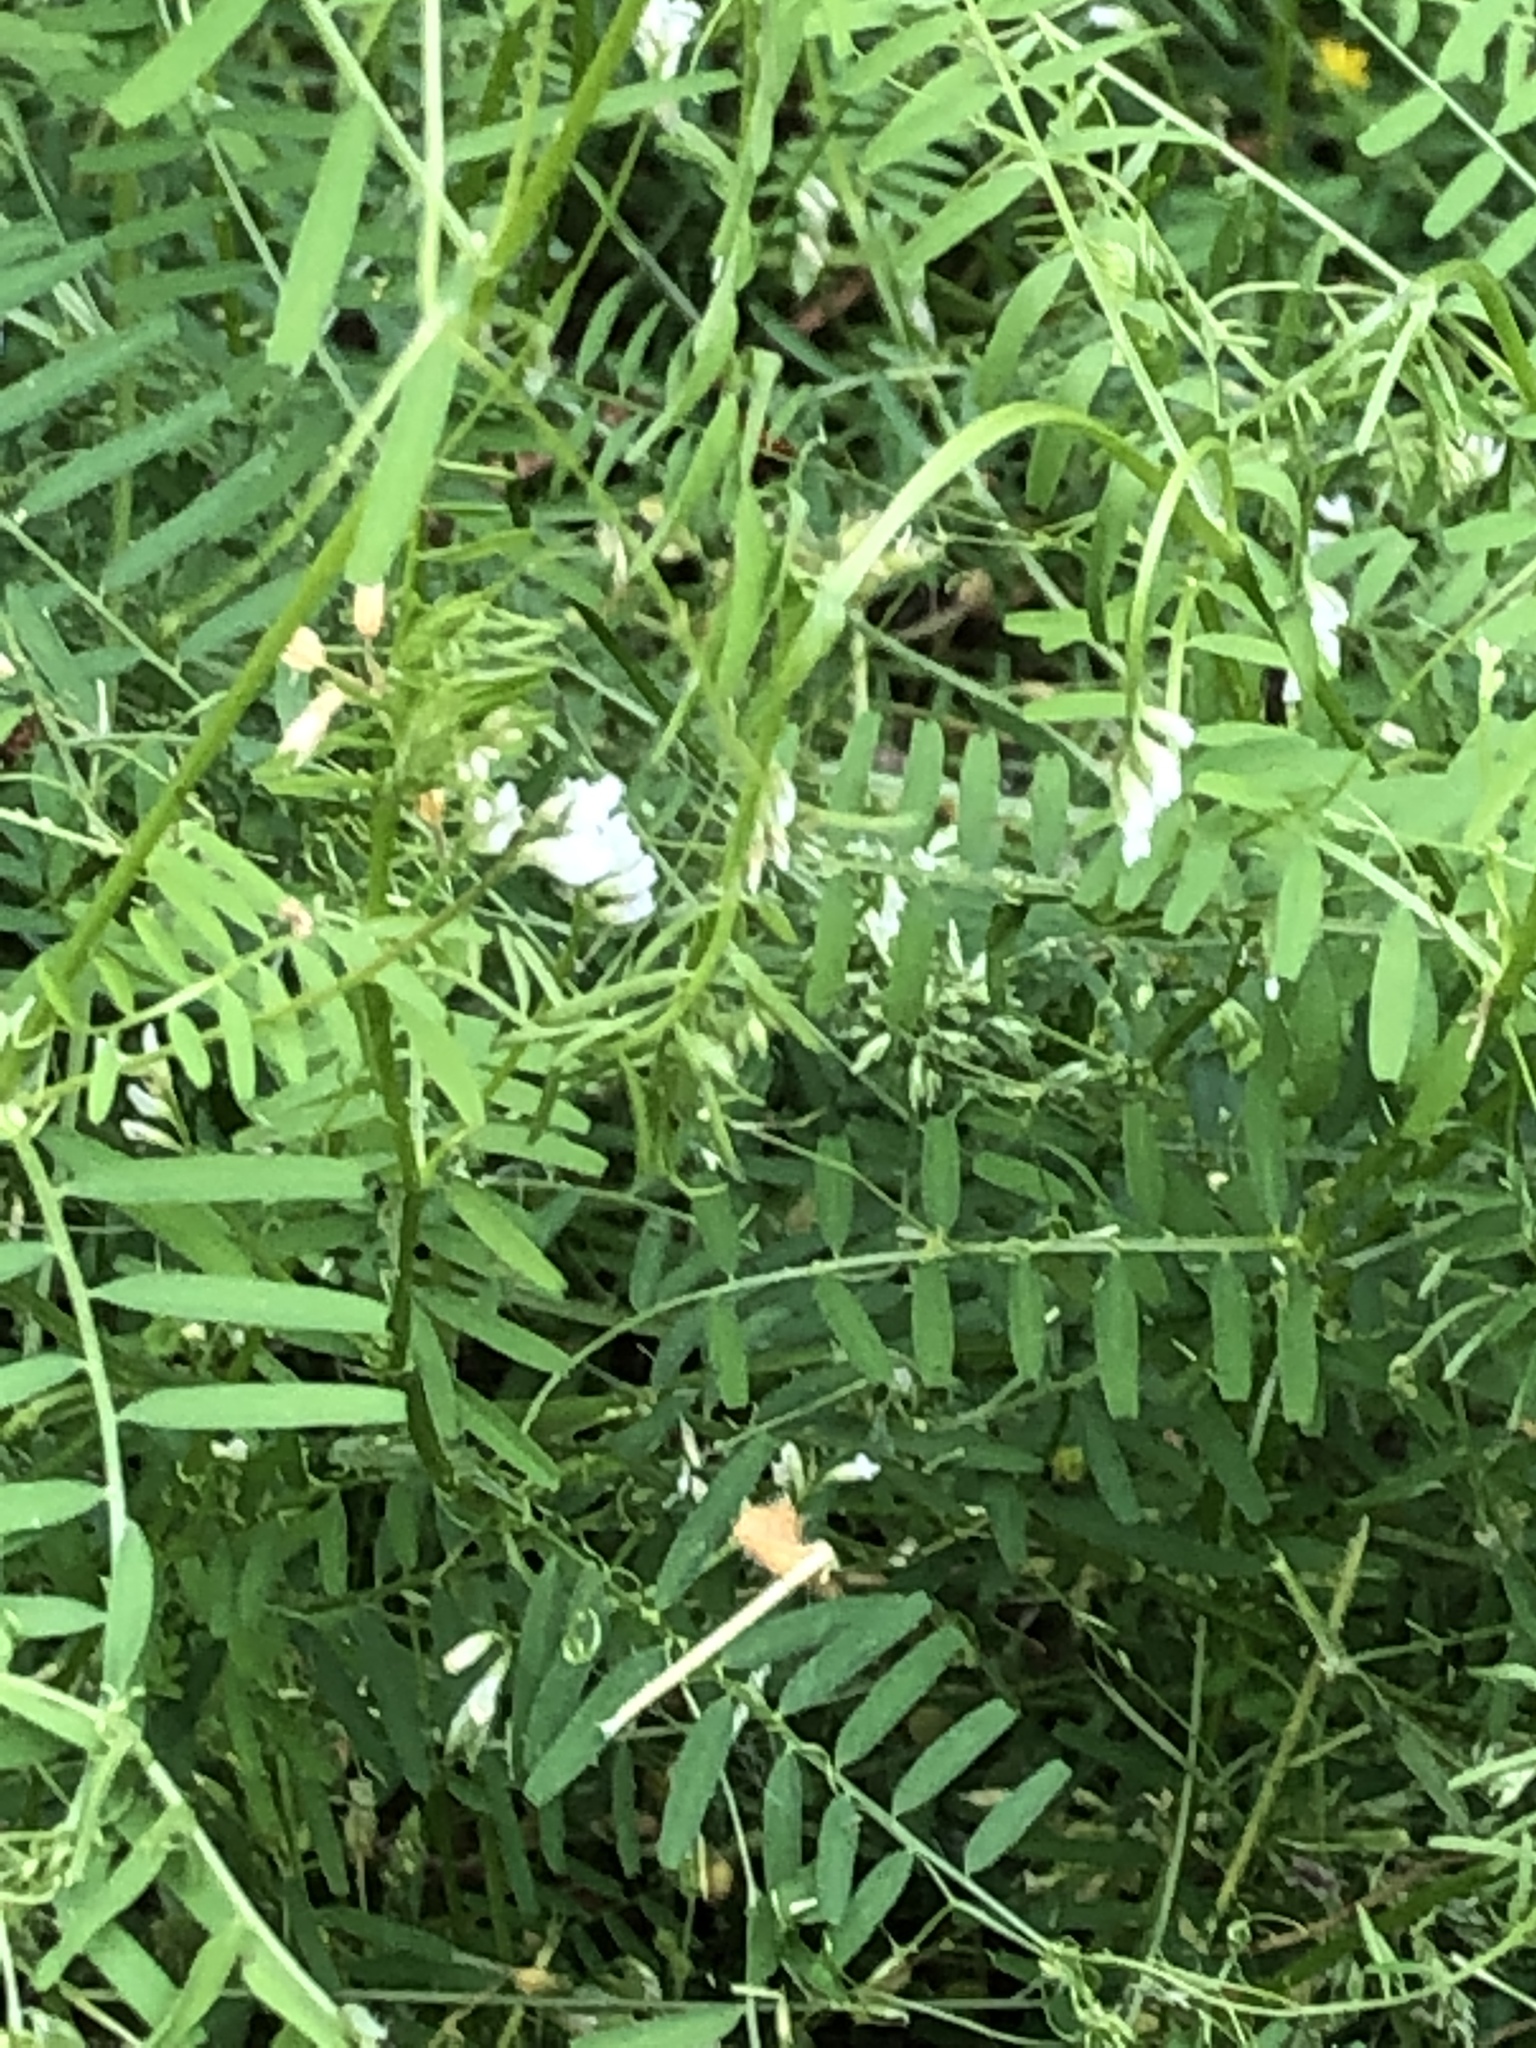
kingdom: Plantae
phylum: Tracheophyta
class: Magnoliopsida
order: Fabales
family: Fabaceae
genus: Vicia
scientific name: Vicia hirsuta
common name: Tiny vetch
